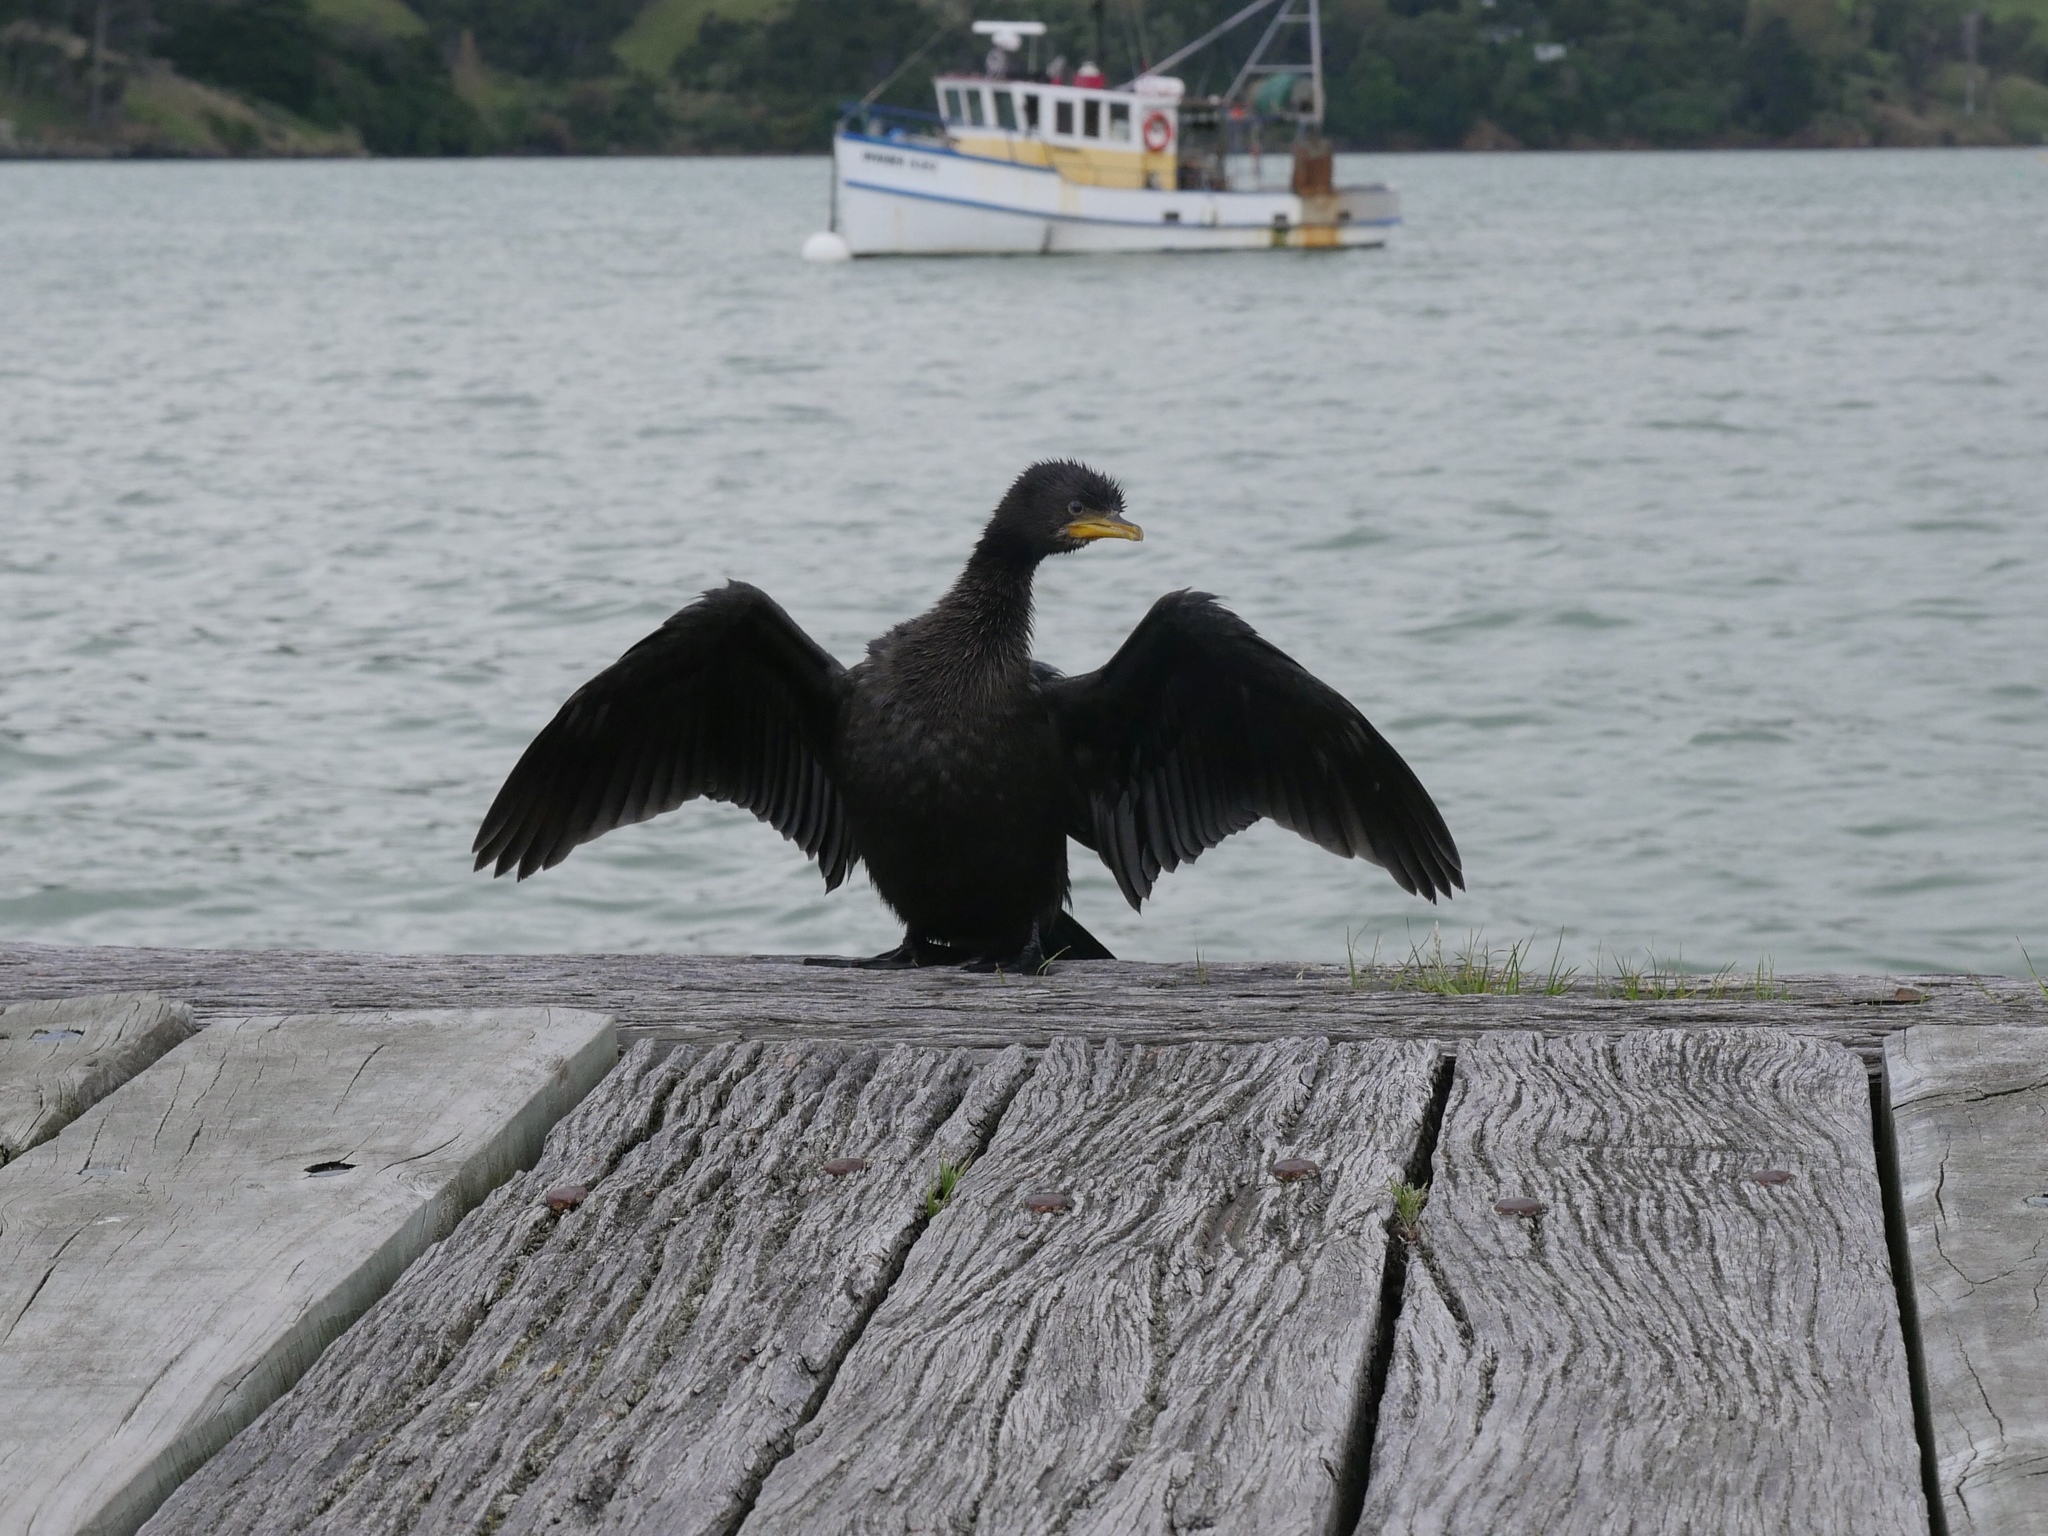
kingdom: Animalia
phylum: Chordata
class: Aves
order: Suliformes
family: Phalacrocoracidae
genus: Microcarbo
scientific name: Microcarbo melanoleucos
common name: Little pied cormorant
